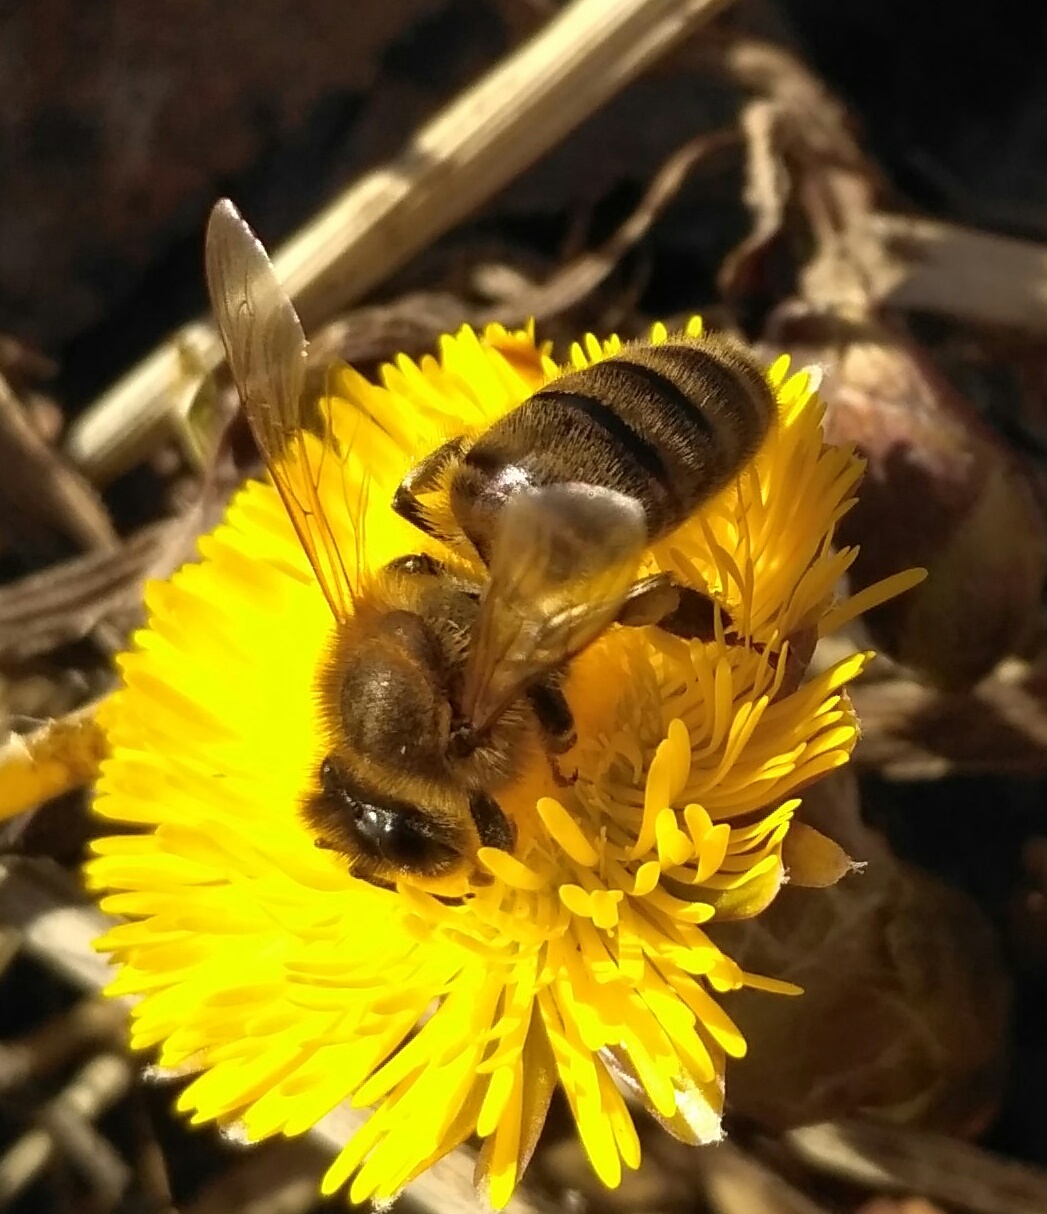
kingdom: Animalia
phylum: Arthropoda
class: Insecta
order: Hymenoptera
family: Apidae
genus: Apis
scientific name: Apis mellifera
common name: Honey bee
